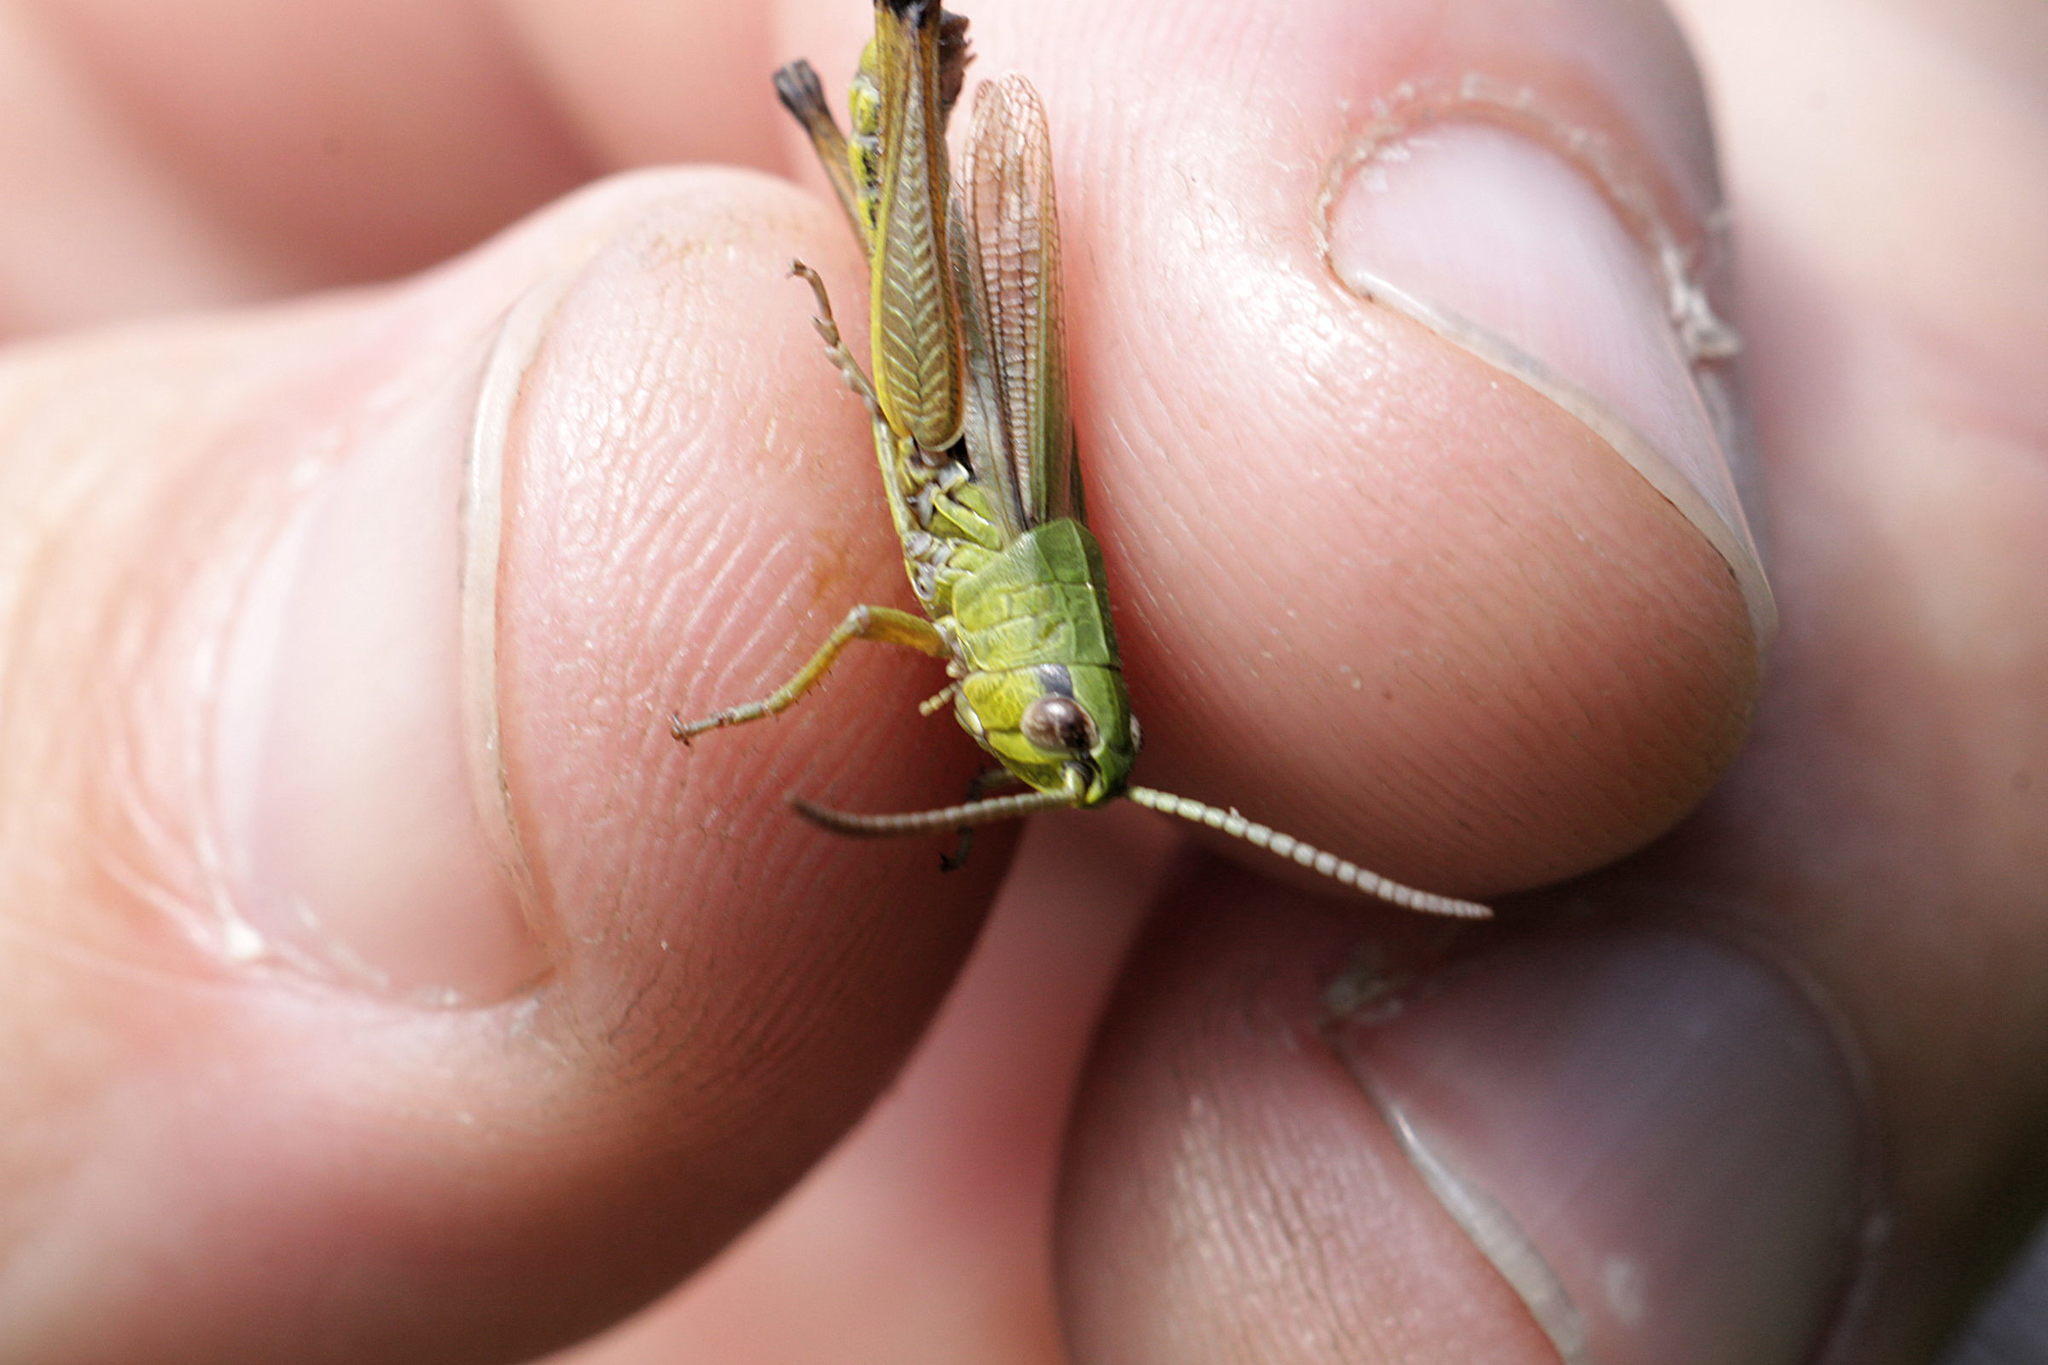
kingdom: Animalia
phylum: Arthropoda
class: Insecta
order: Orthoptera
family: Acrididae
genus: Pseudochorthippus
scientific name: Pseudochorthippus parallelus
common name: Meadow grasshopper
